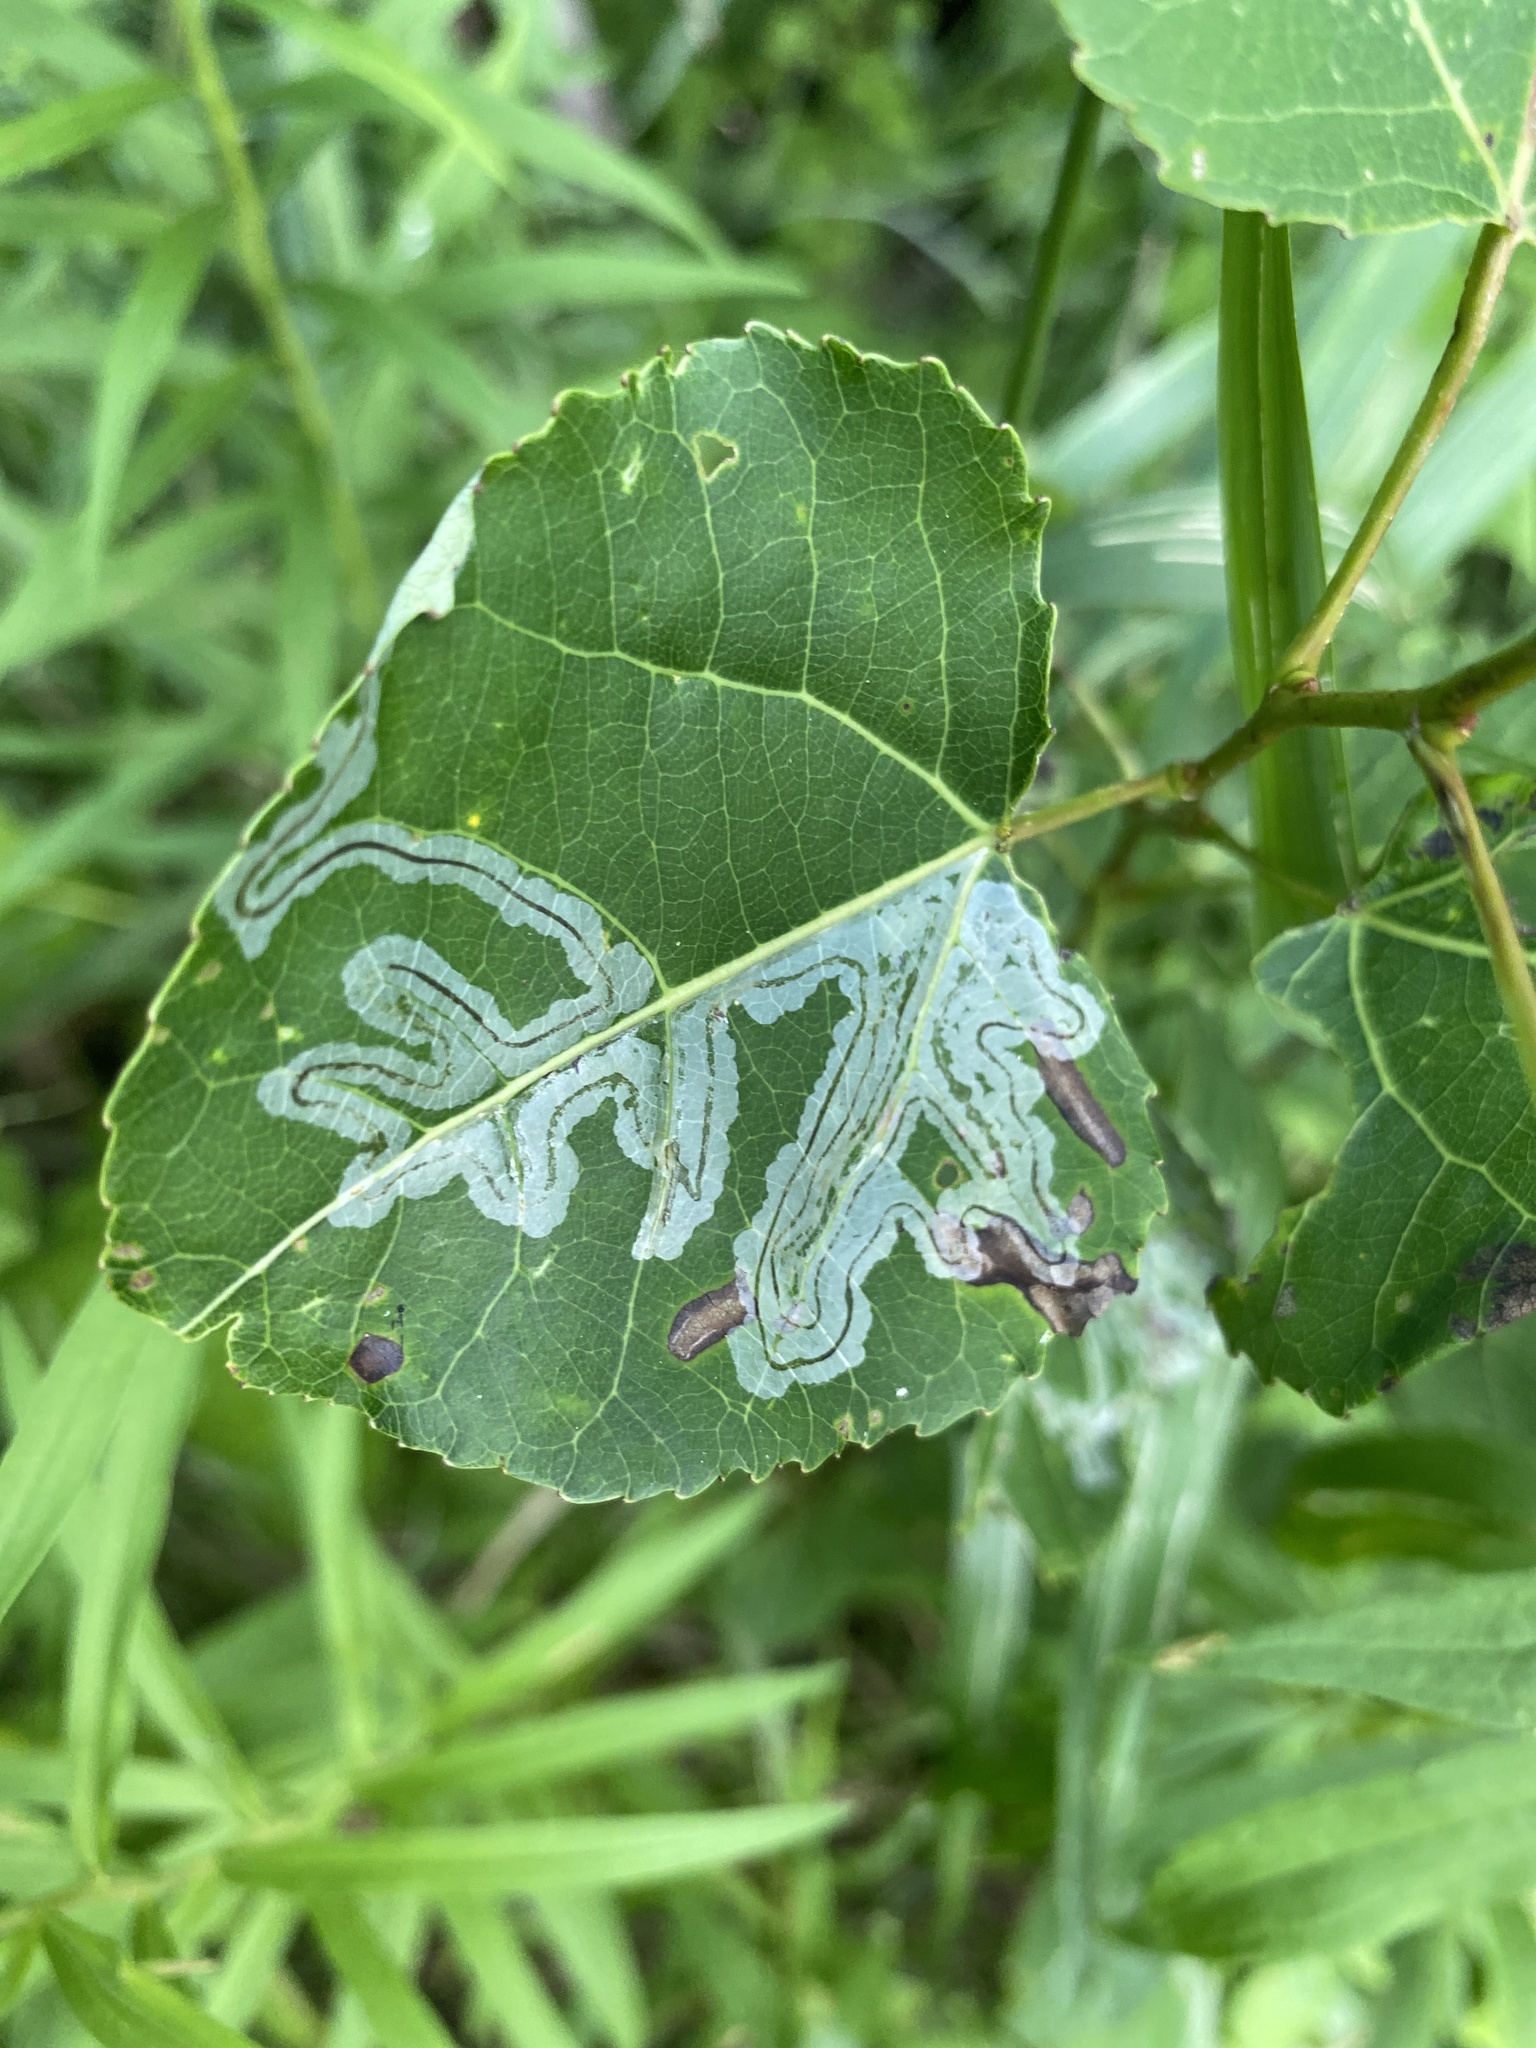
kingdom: Animalia
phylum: Arthropoda
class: Insecta
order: Lepidoptera
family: Gracillariidae
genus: Phyllocnistis
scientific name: Phyllocnistis populiella
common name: Aspen serpentine leafminer moth
